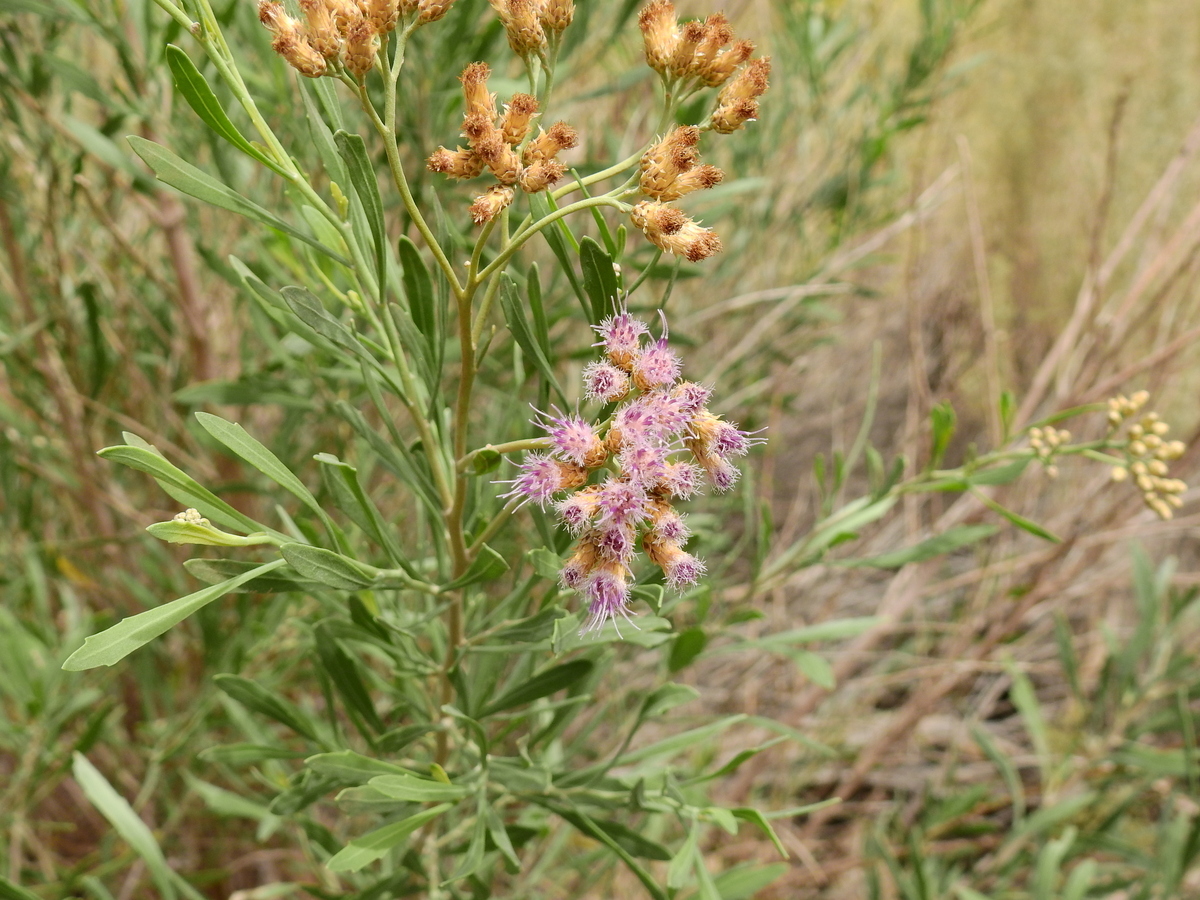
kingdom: Plantae
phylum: Tracheophyta
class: Magnoliopsida
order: Asterales
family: Asteraceae
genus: Tessaria
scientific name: Tessaria absinthioides
